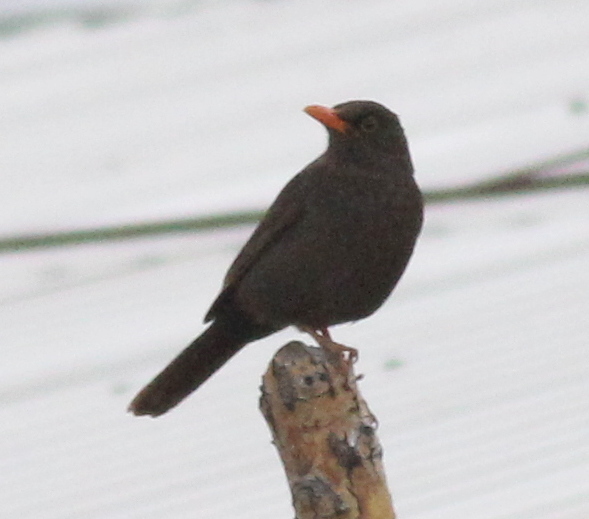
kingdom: Animalia
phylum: Chordata
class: Aves
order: Passeriformes
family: Turdidae
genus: Turdus
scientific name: Turdus chiguanco
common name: Chiguanco thrush
